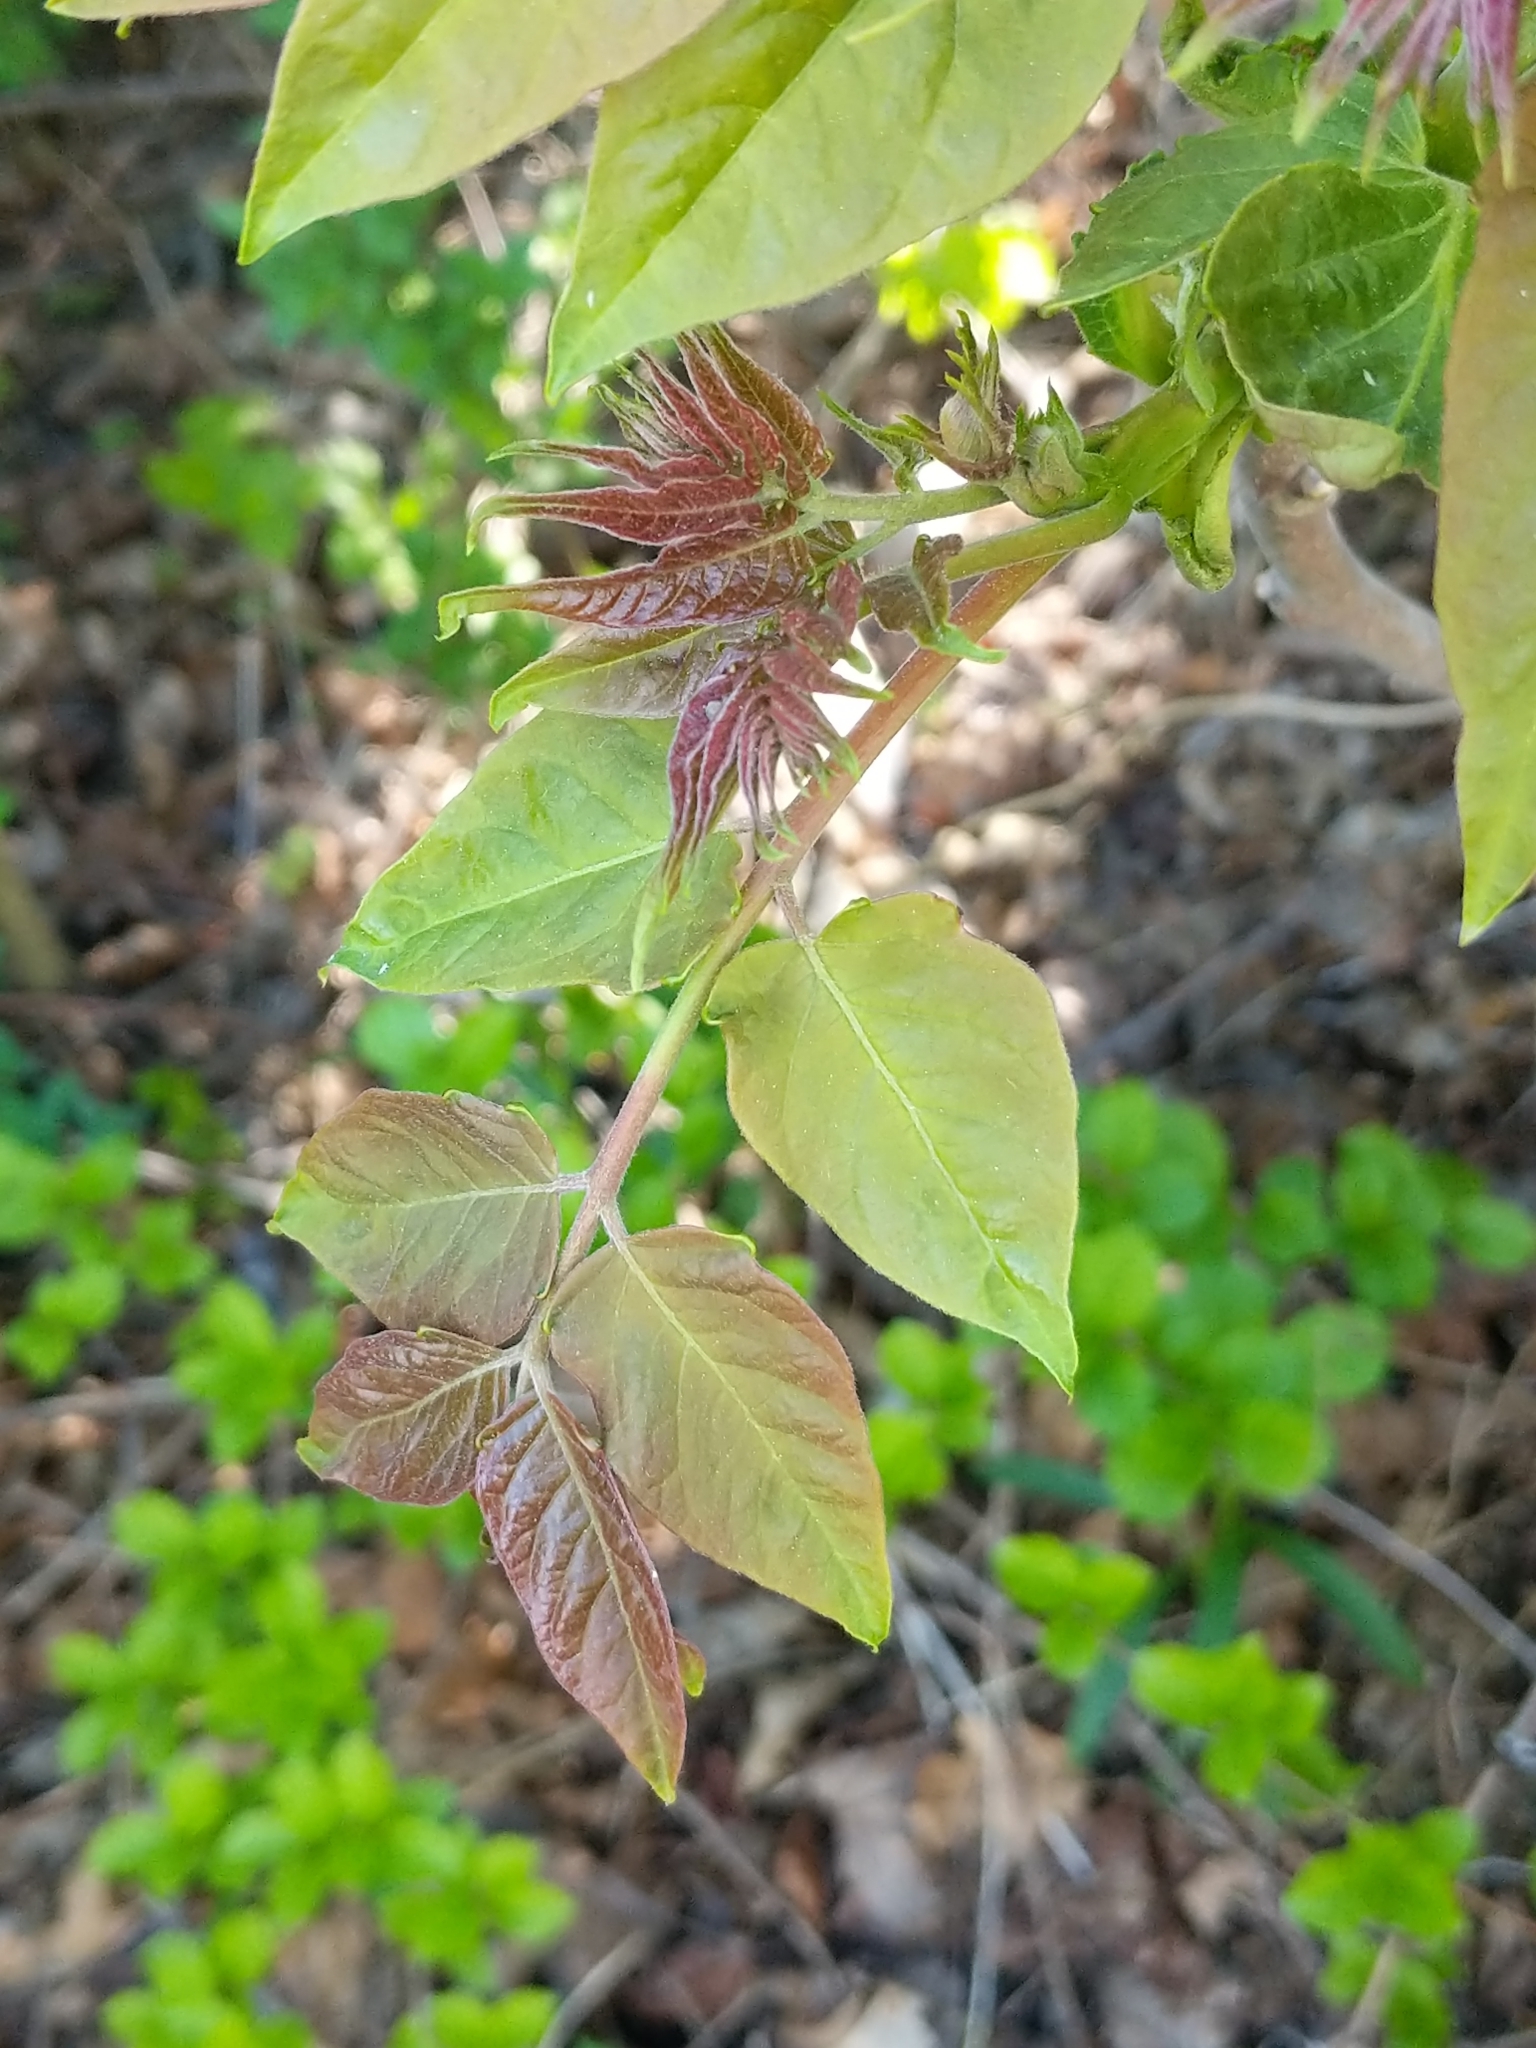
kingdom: Plantae
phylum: Tracheophyta
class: Magnoliopsida
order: Sapindales
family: Simaroubaceae
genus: Ailanthus
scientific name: Ailanthus altissima
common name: Tree-of-heaven
